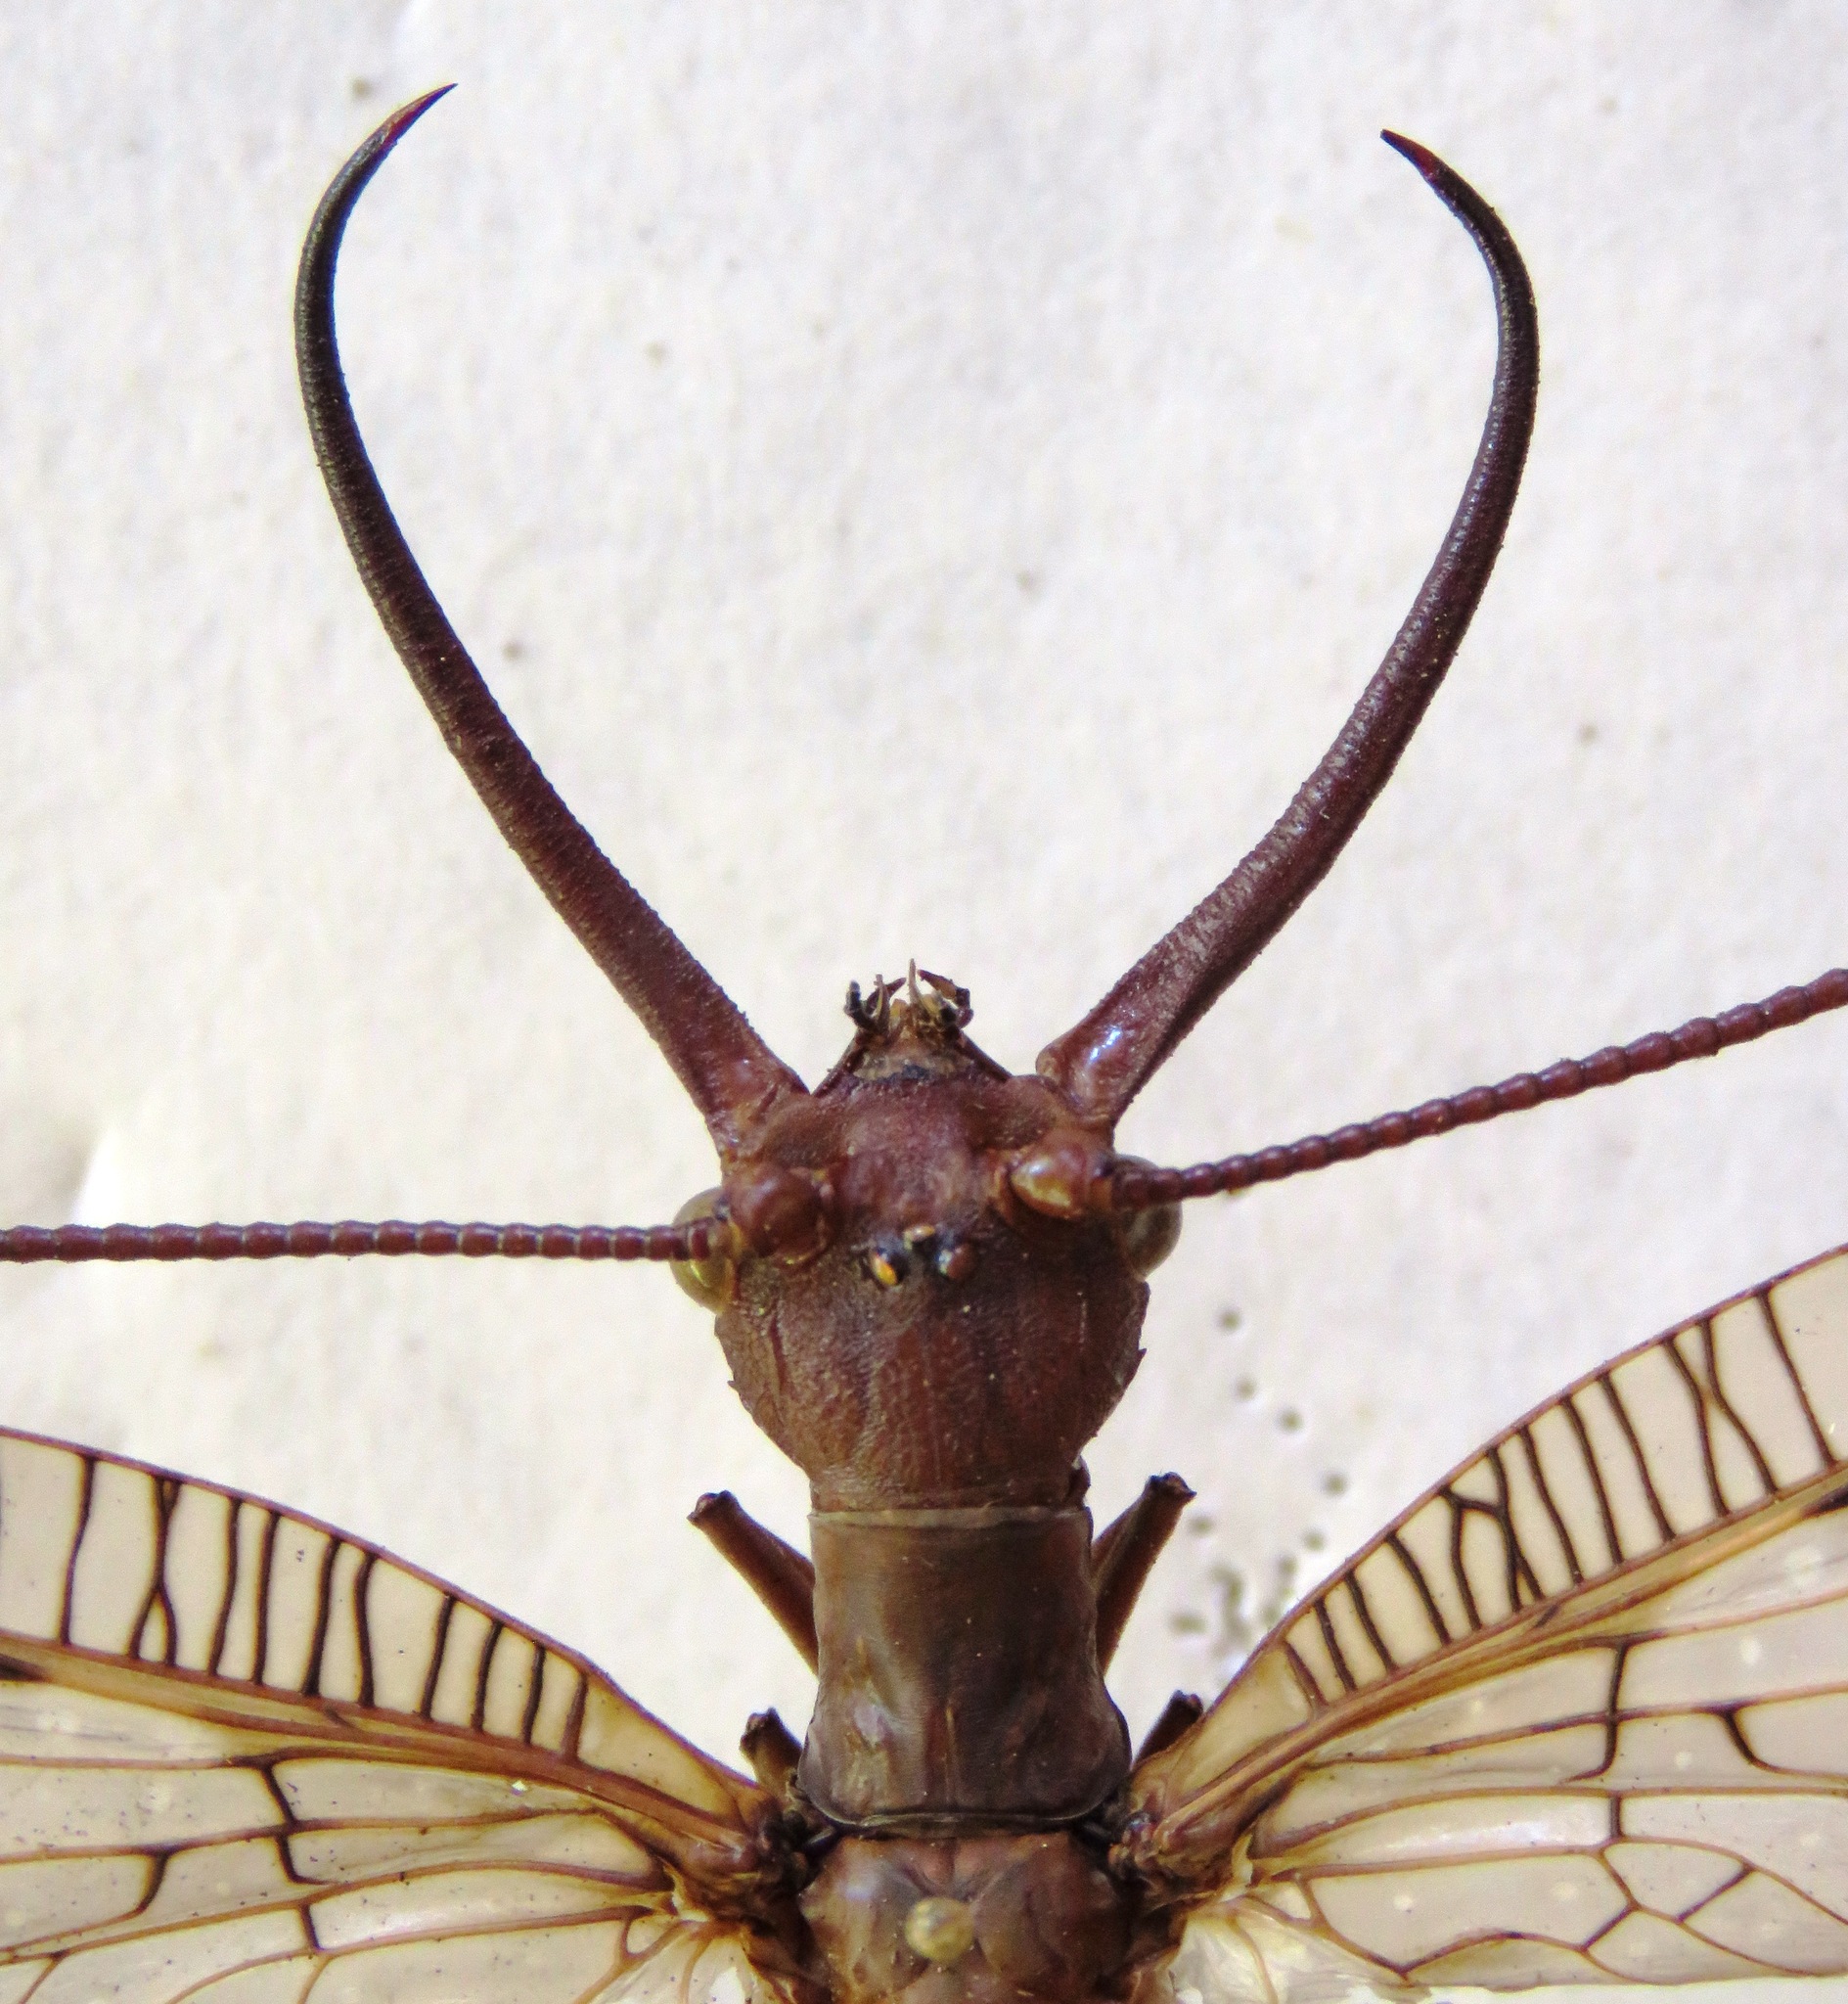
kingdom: Animalia
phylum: Arthropoda
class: Insecta
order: Megaloptera
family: Corydalidae
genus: Corydalus
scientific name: Corydalus magnus
